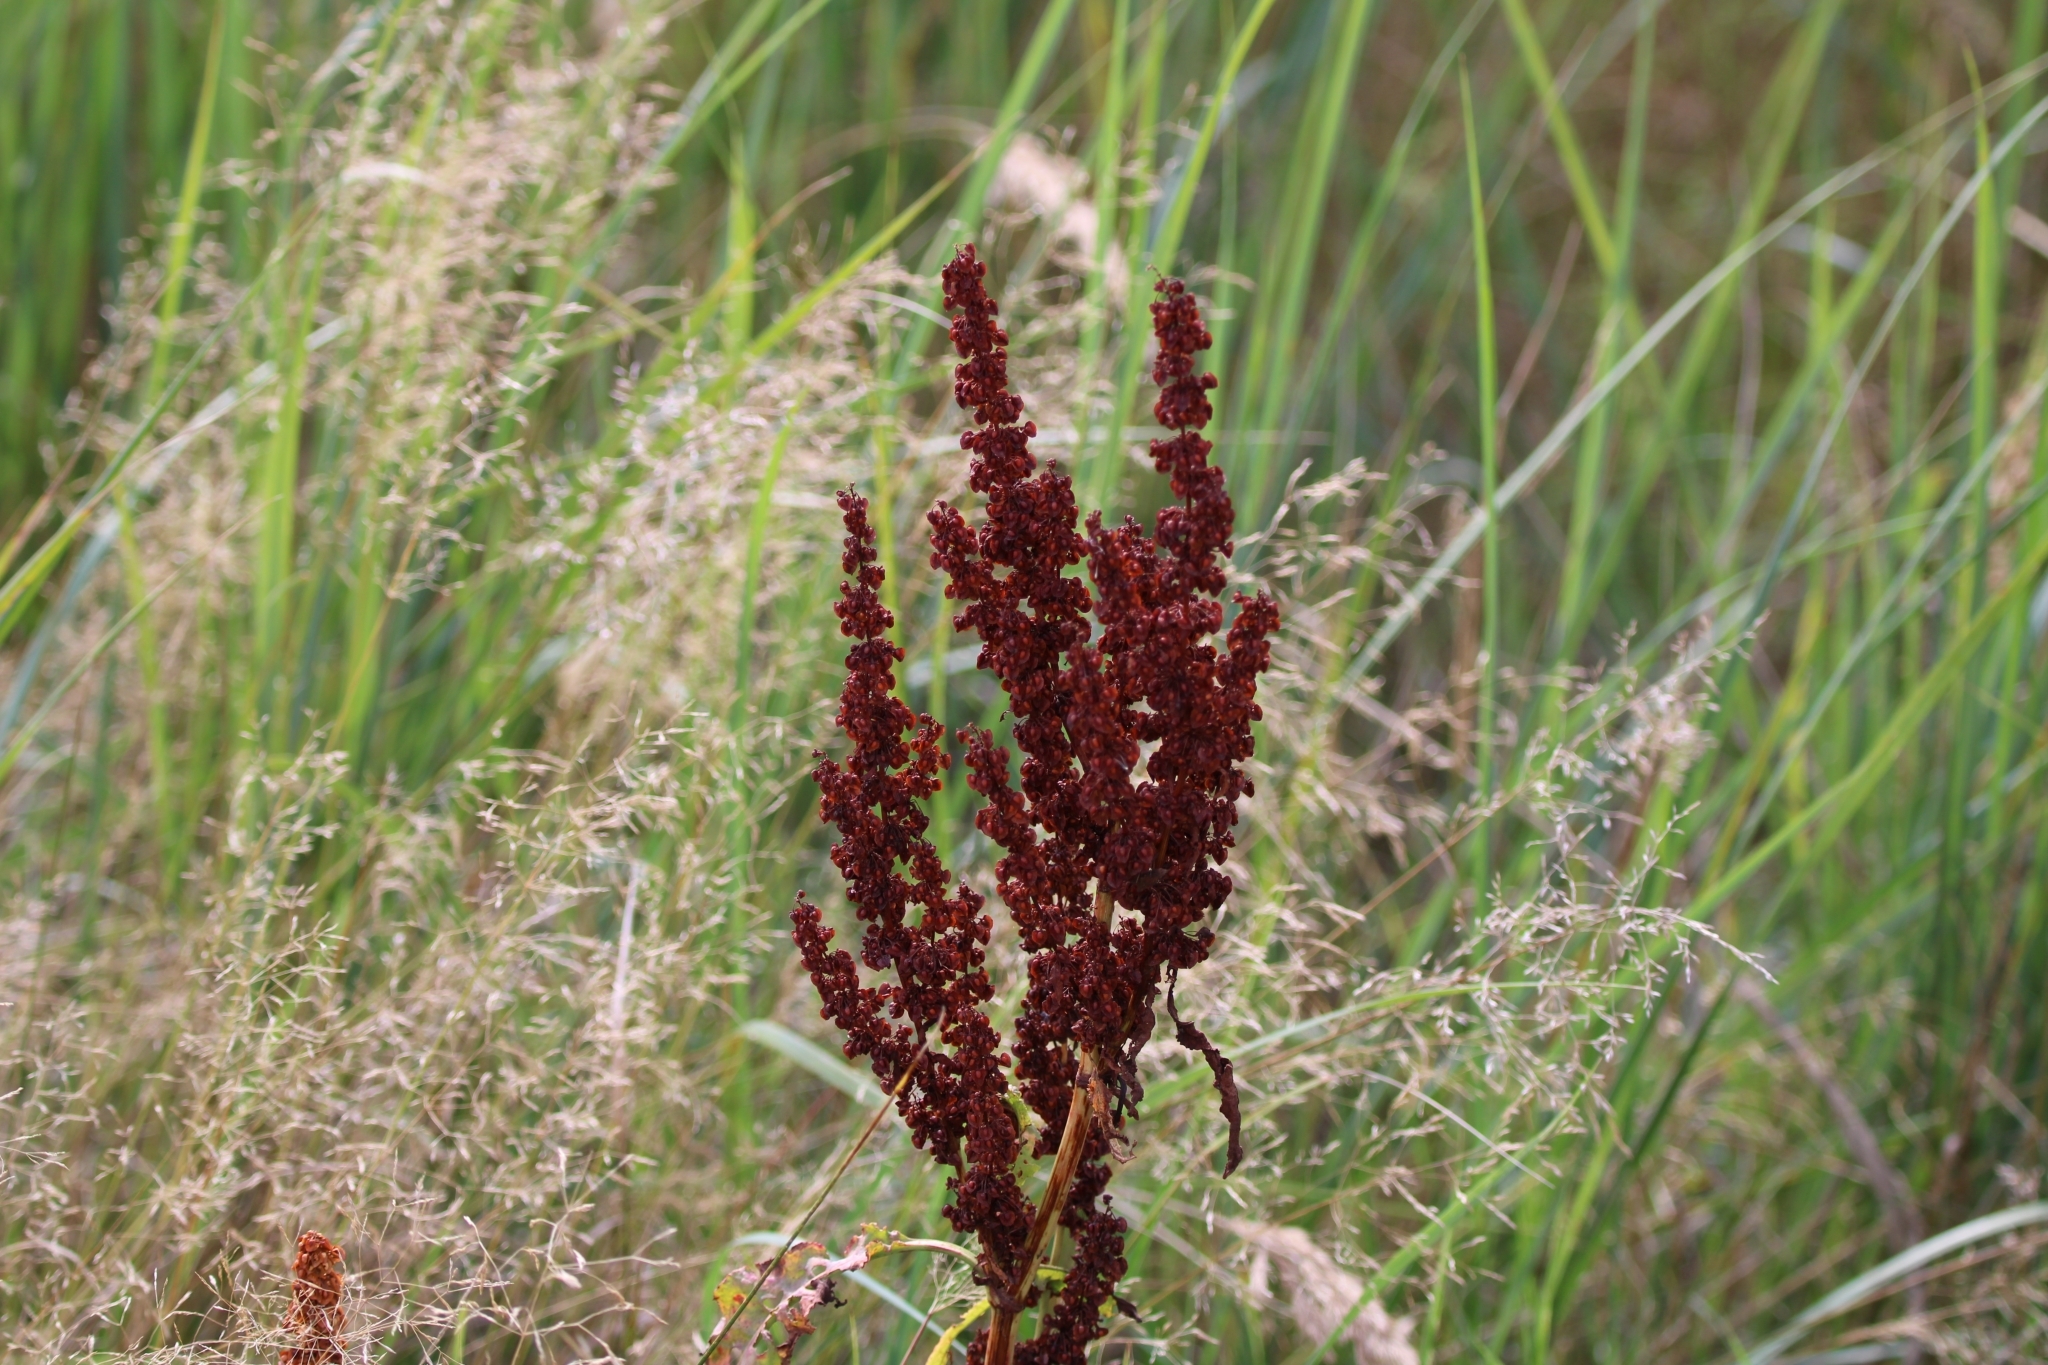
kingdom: Plantae
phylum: Tracheophyta
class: Magnoliopsida
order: Caryophyllales
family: Polygonaceae
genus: Rumex
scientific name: Rumex crispus
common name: Curled dock
